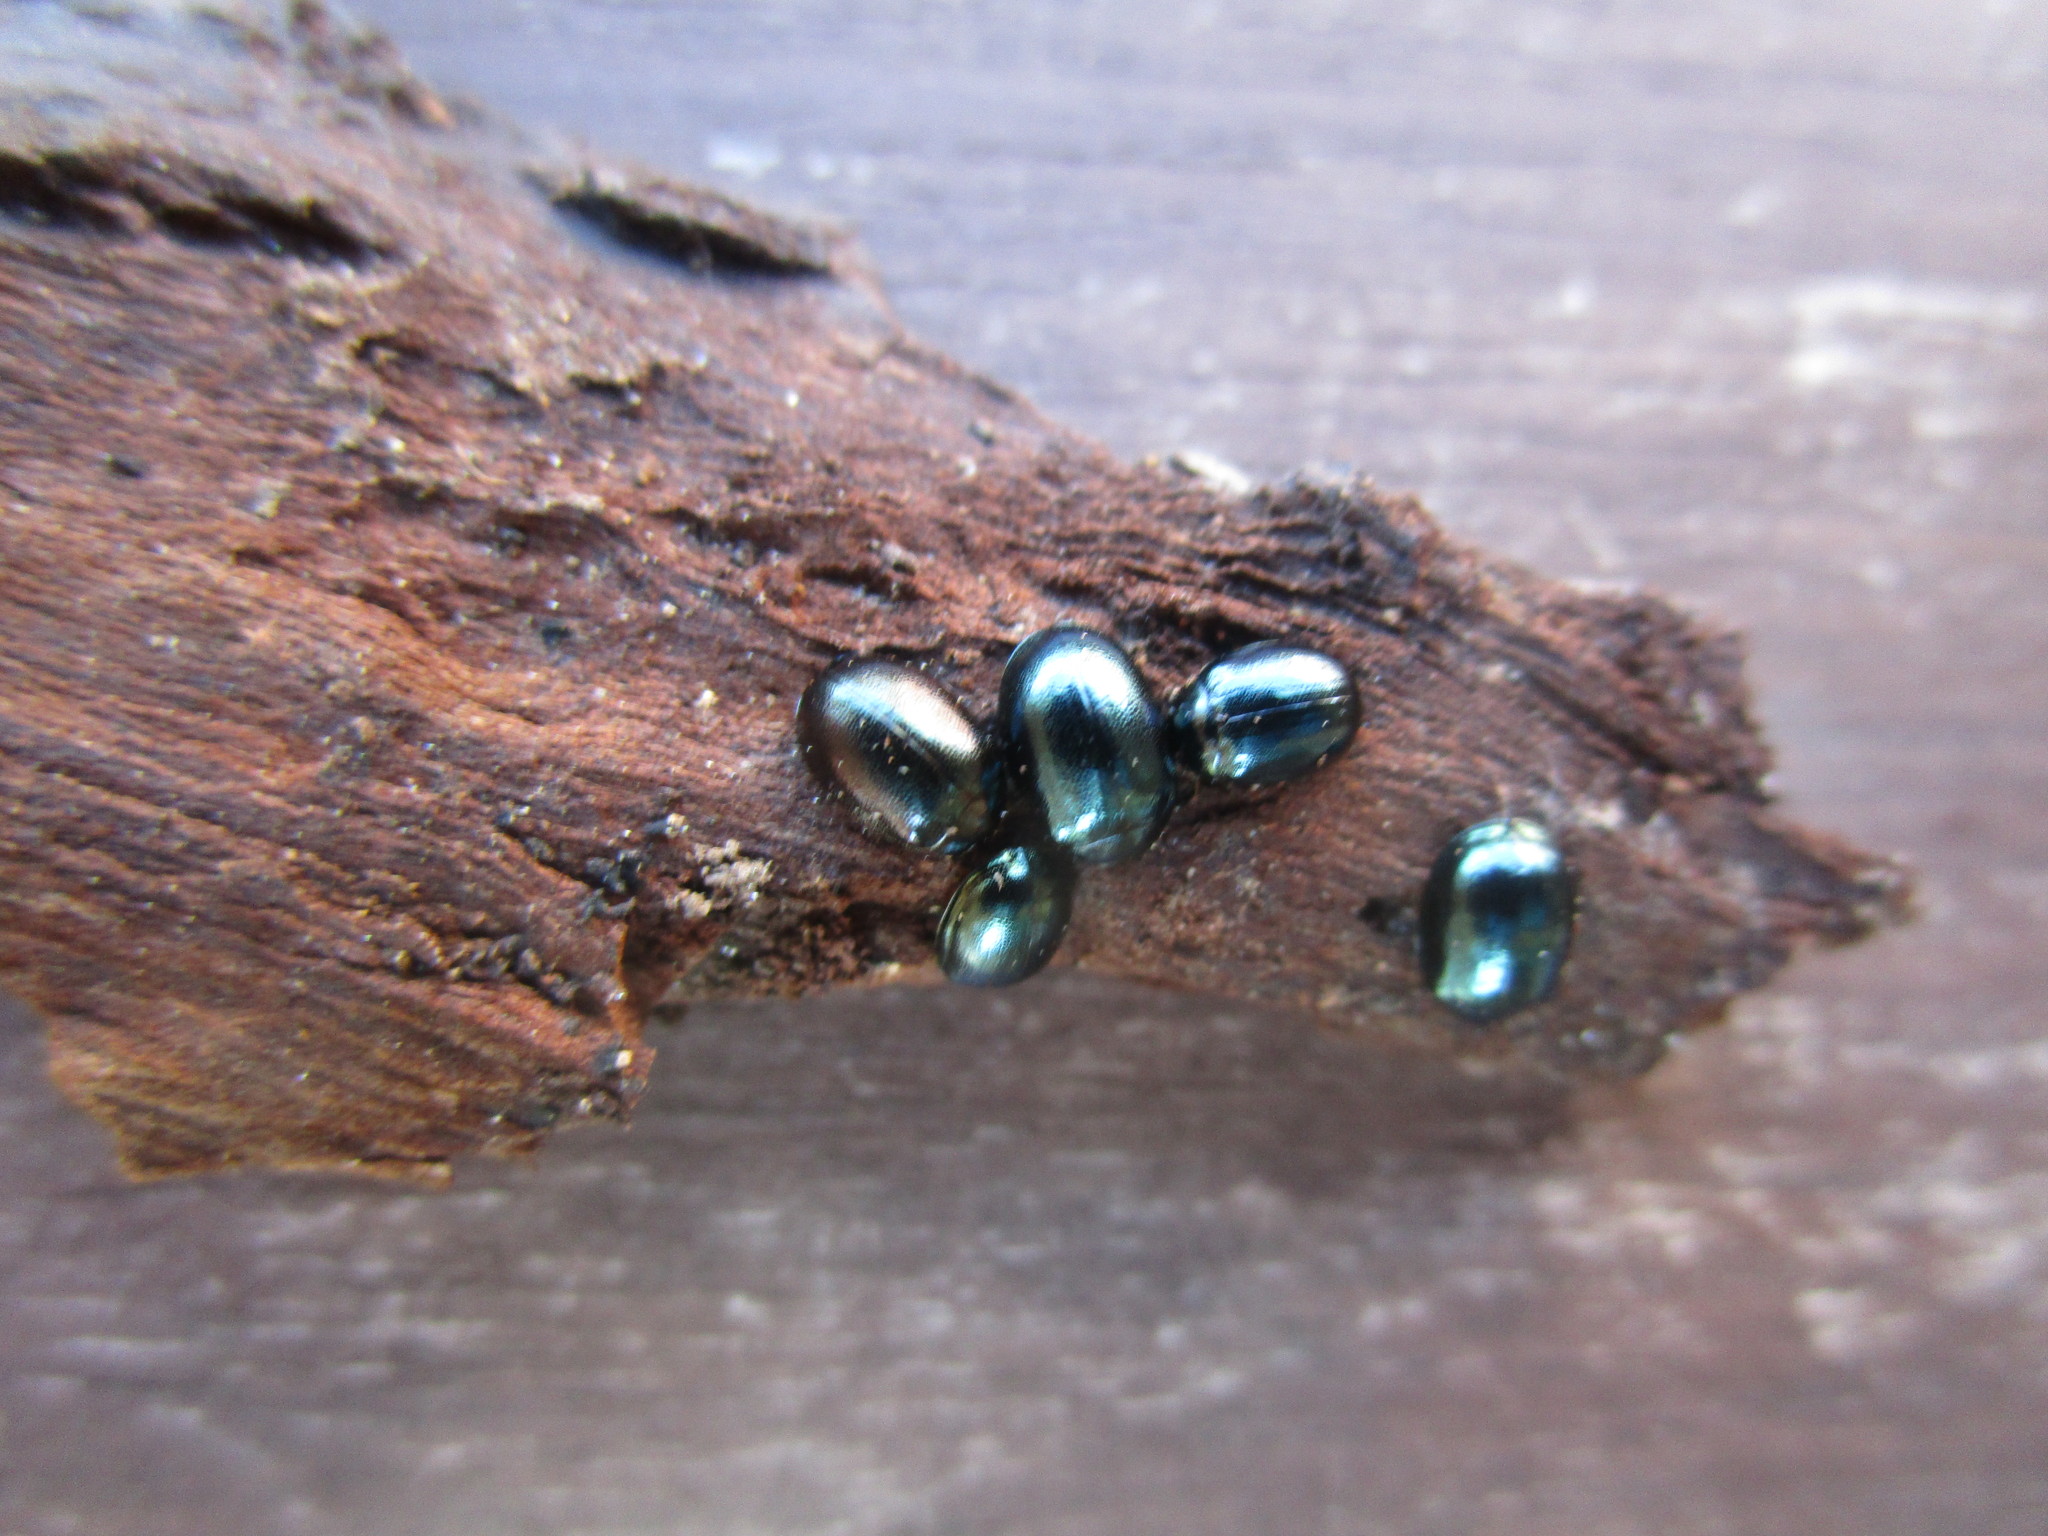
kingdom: Animalia
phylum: Arthropoda
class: Insecta
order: Coleoptera
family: Chrysomelidae
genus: Plagiodera
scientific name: Plagiodera versicolora
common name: Imported willow leaf beetle
